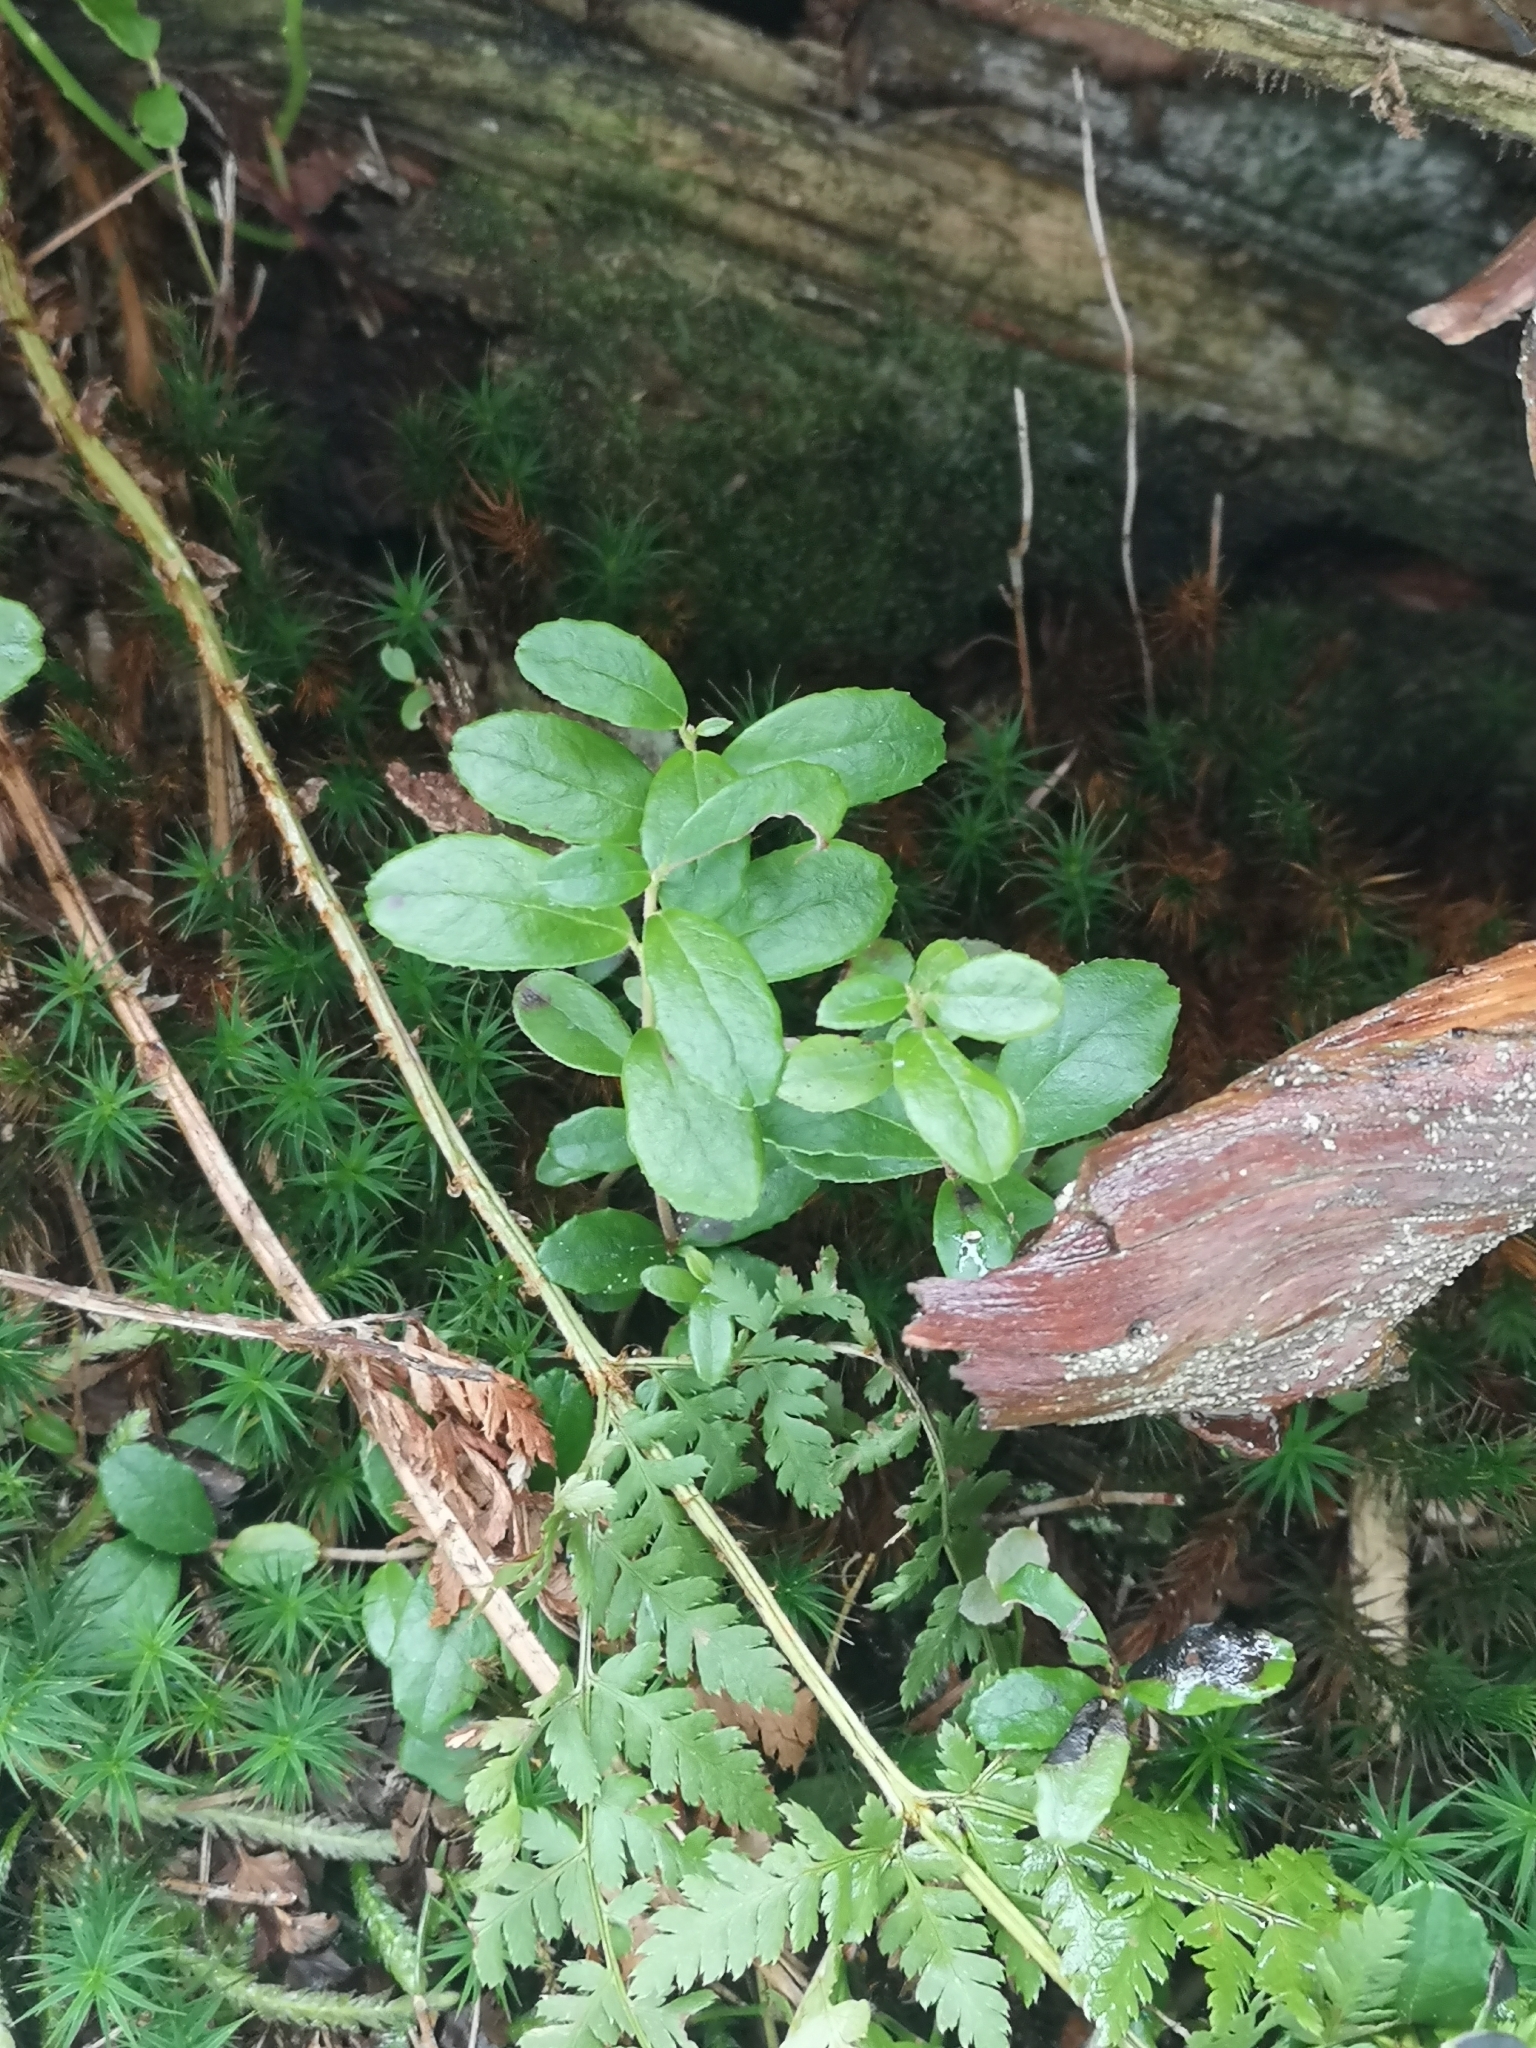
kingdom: Plantae
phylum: Tracheophyta
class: Magnoliopsida
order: Ericales
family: Ericaceae
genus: Vaccinium
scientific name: Vaccinium vitis-idaea
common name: Cowberry
